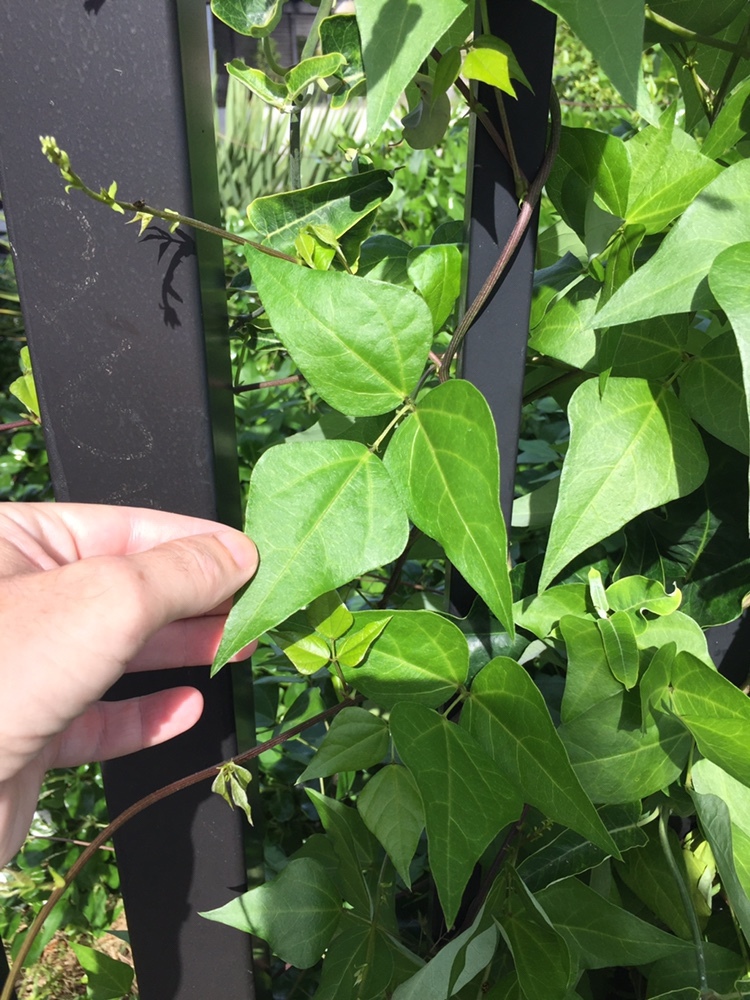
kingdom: Plantae
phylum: Tracheophyta
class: Magnoliopsida
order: Fabales
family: Fabaceae
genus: Dipogon
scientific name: Dipogon lignosus
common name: Okie bean
